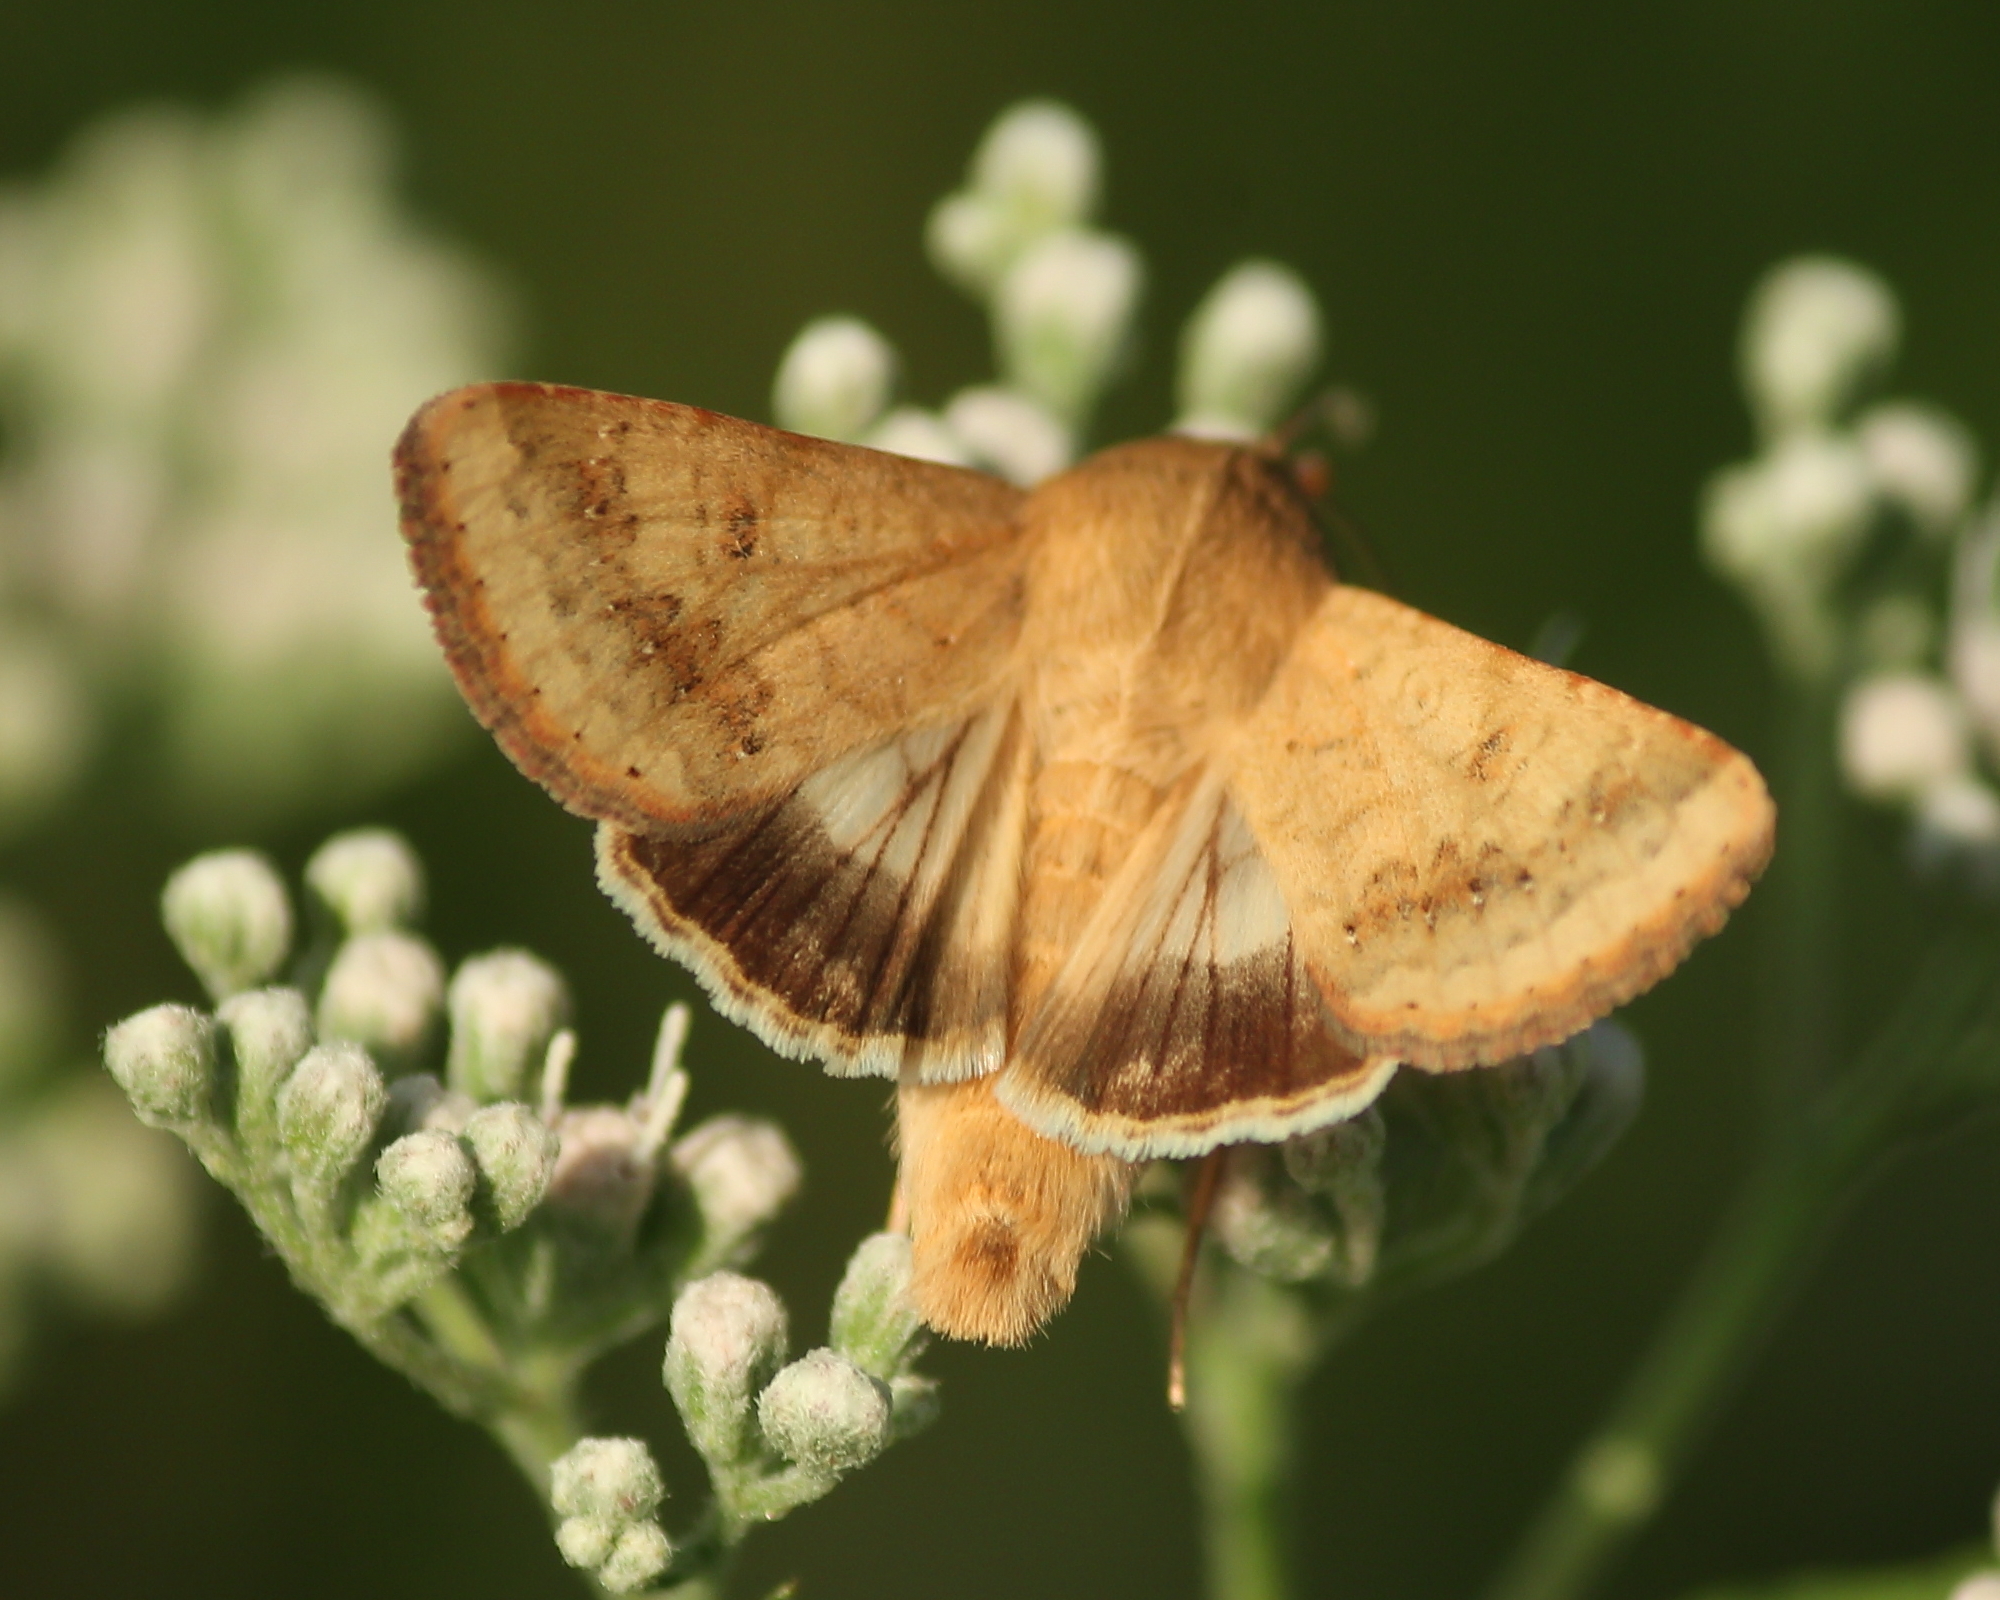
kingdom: Animalia
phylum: Arthropoda
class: Insecta
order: Lepidoptera
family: Noctuidae
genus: Helicoverpa
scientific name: Helicoverpa zea
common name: Bollworm
